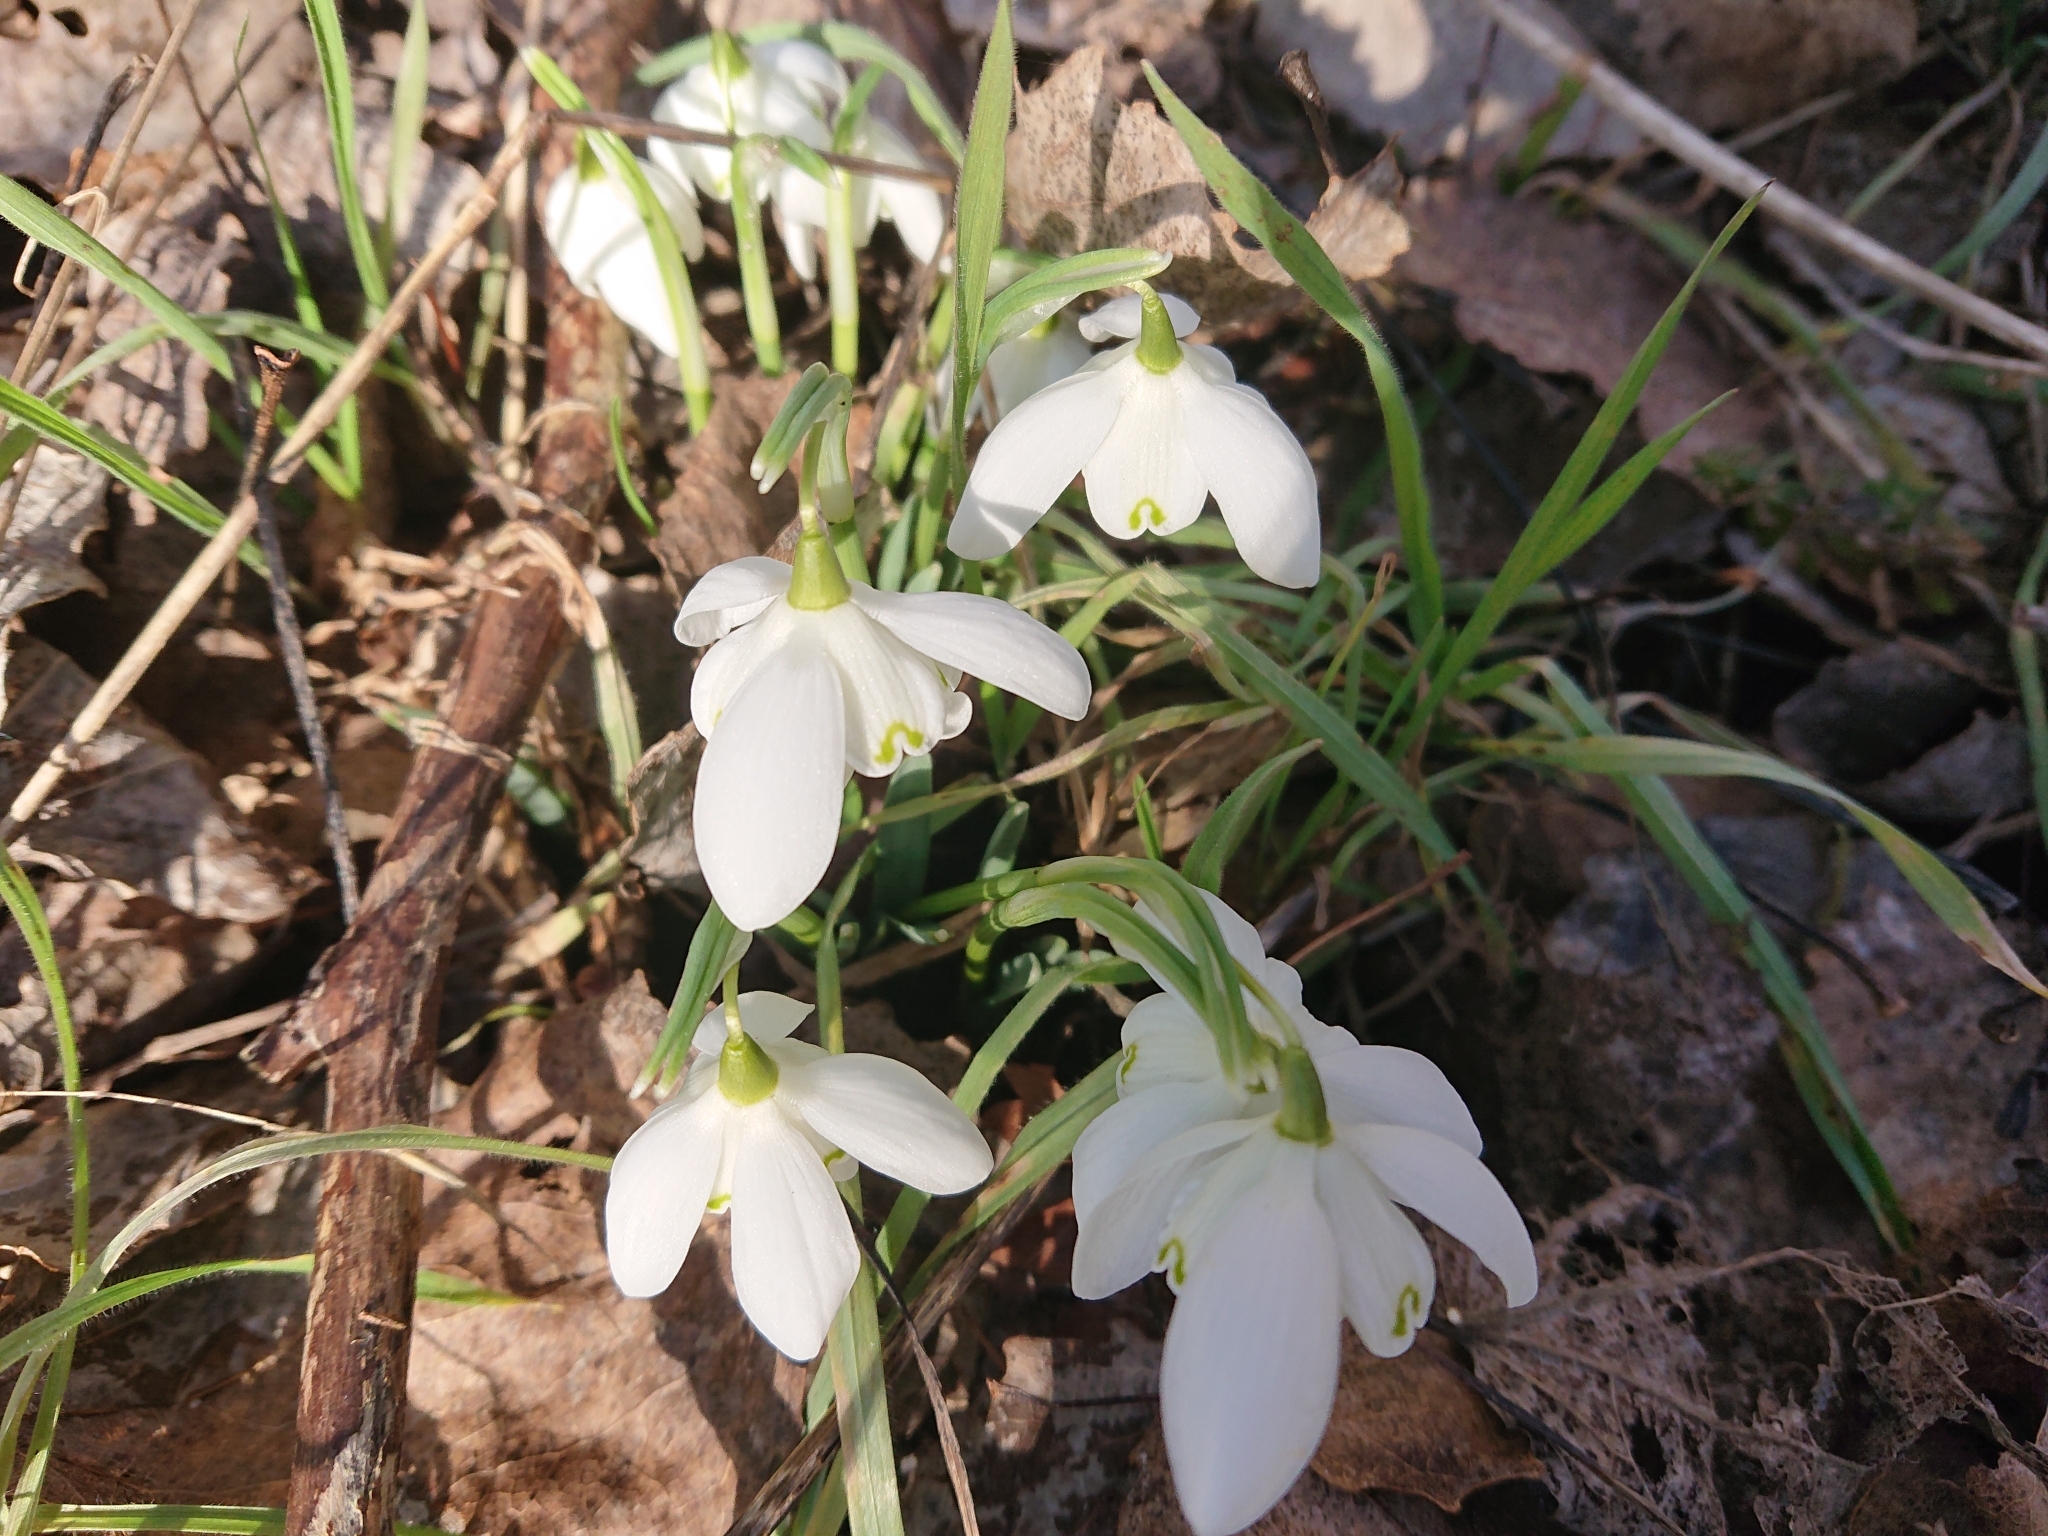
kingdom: Plantae
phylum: Tracheophyta
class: Liliopsida
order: Asparagales
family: Amaryllidaceae
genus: Galanthus
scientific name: Galanthus nivalis
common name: Snowdrop
